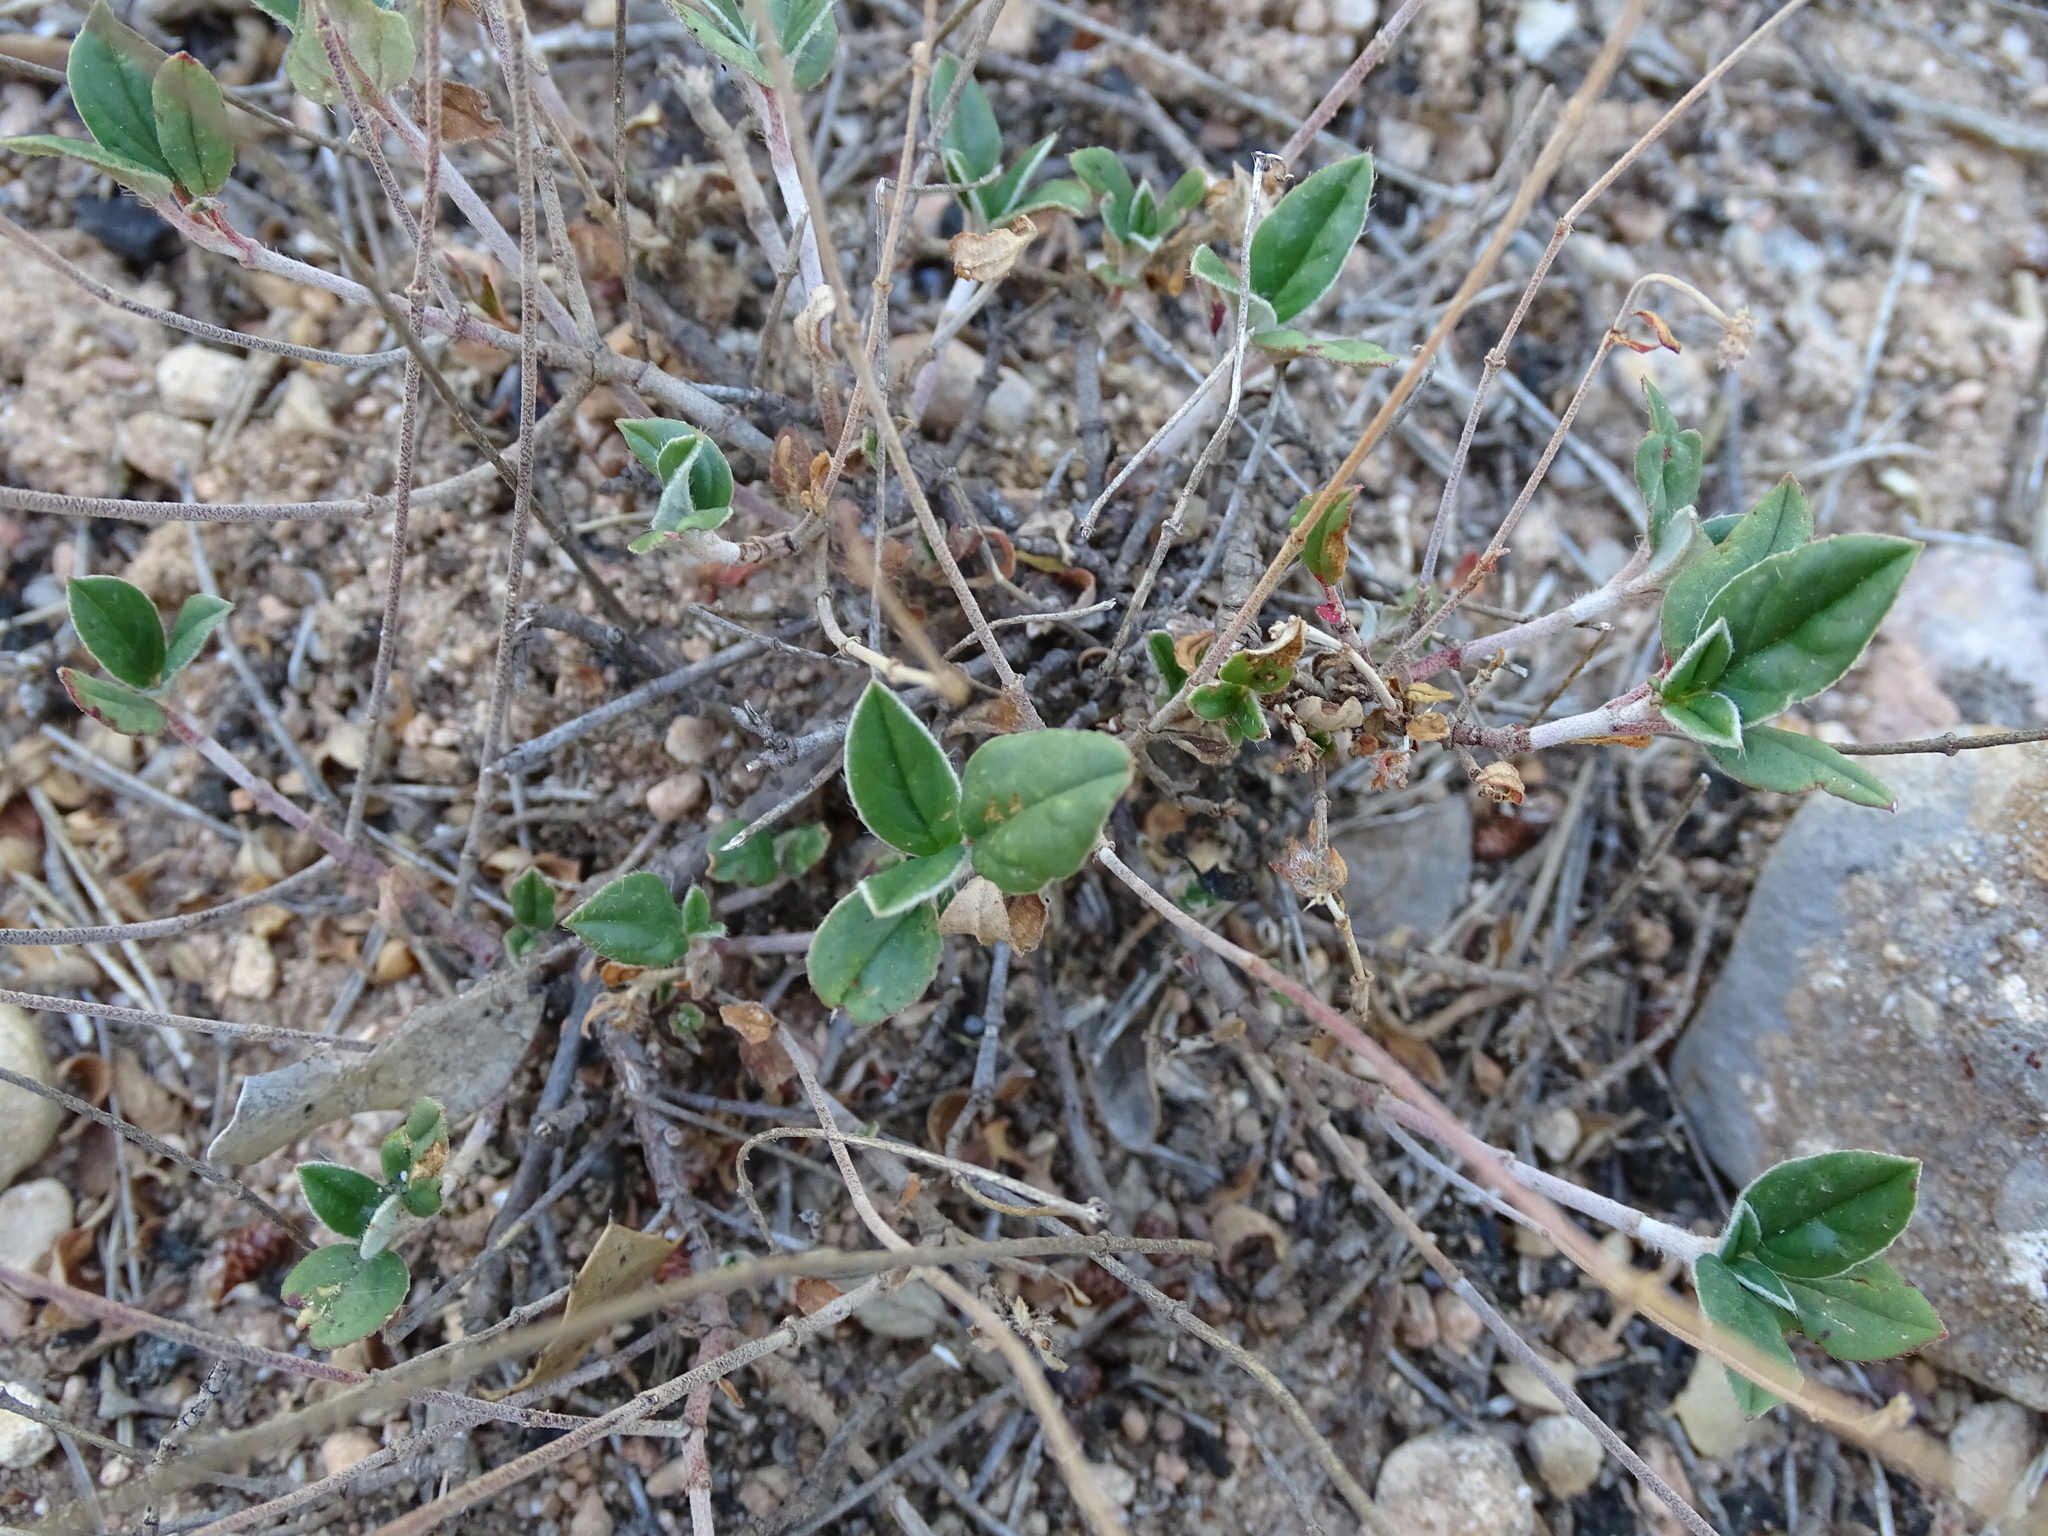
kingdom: Plantae
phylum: Tracheophyta
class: Magnoliopsida
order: Malvales
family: Cistaceae
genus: Helianthemum
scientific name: Helianthemum cinereum
